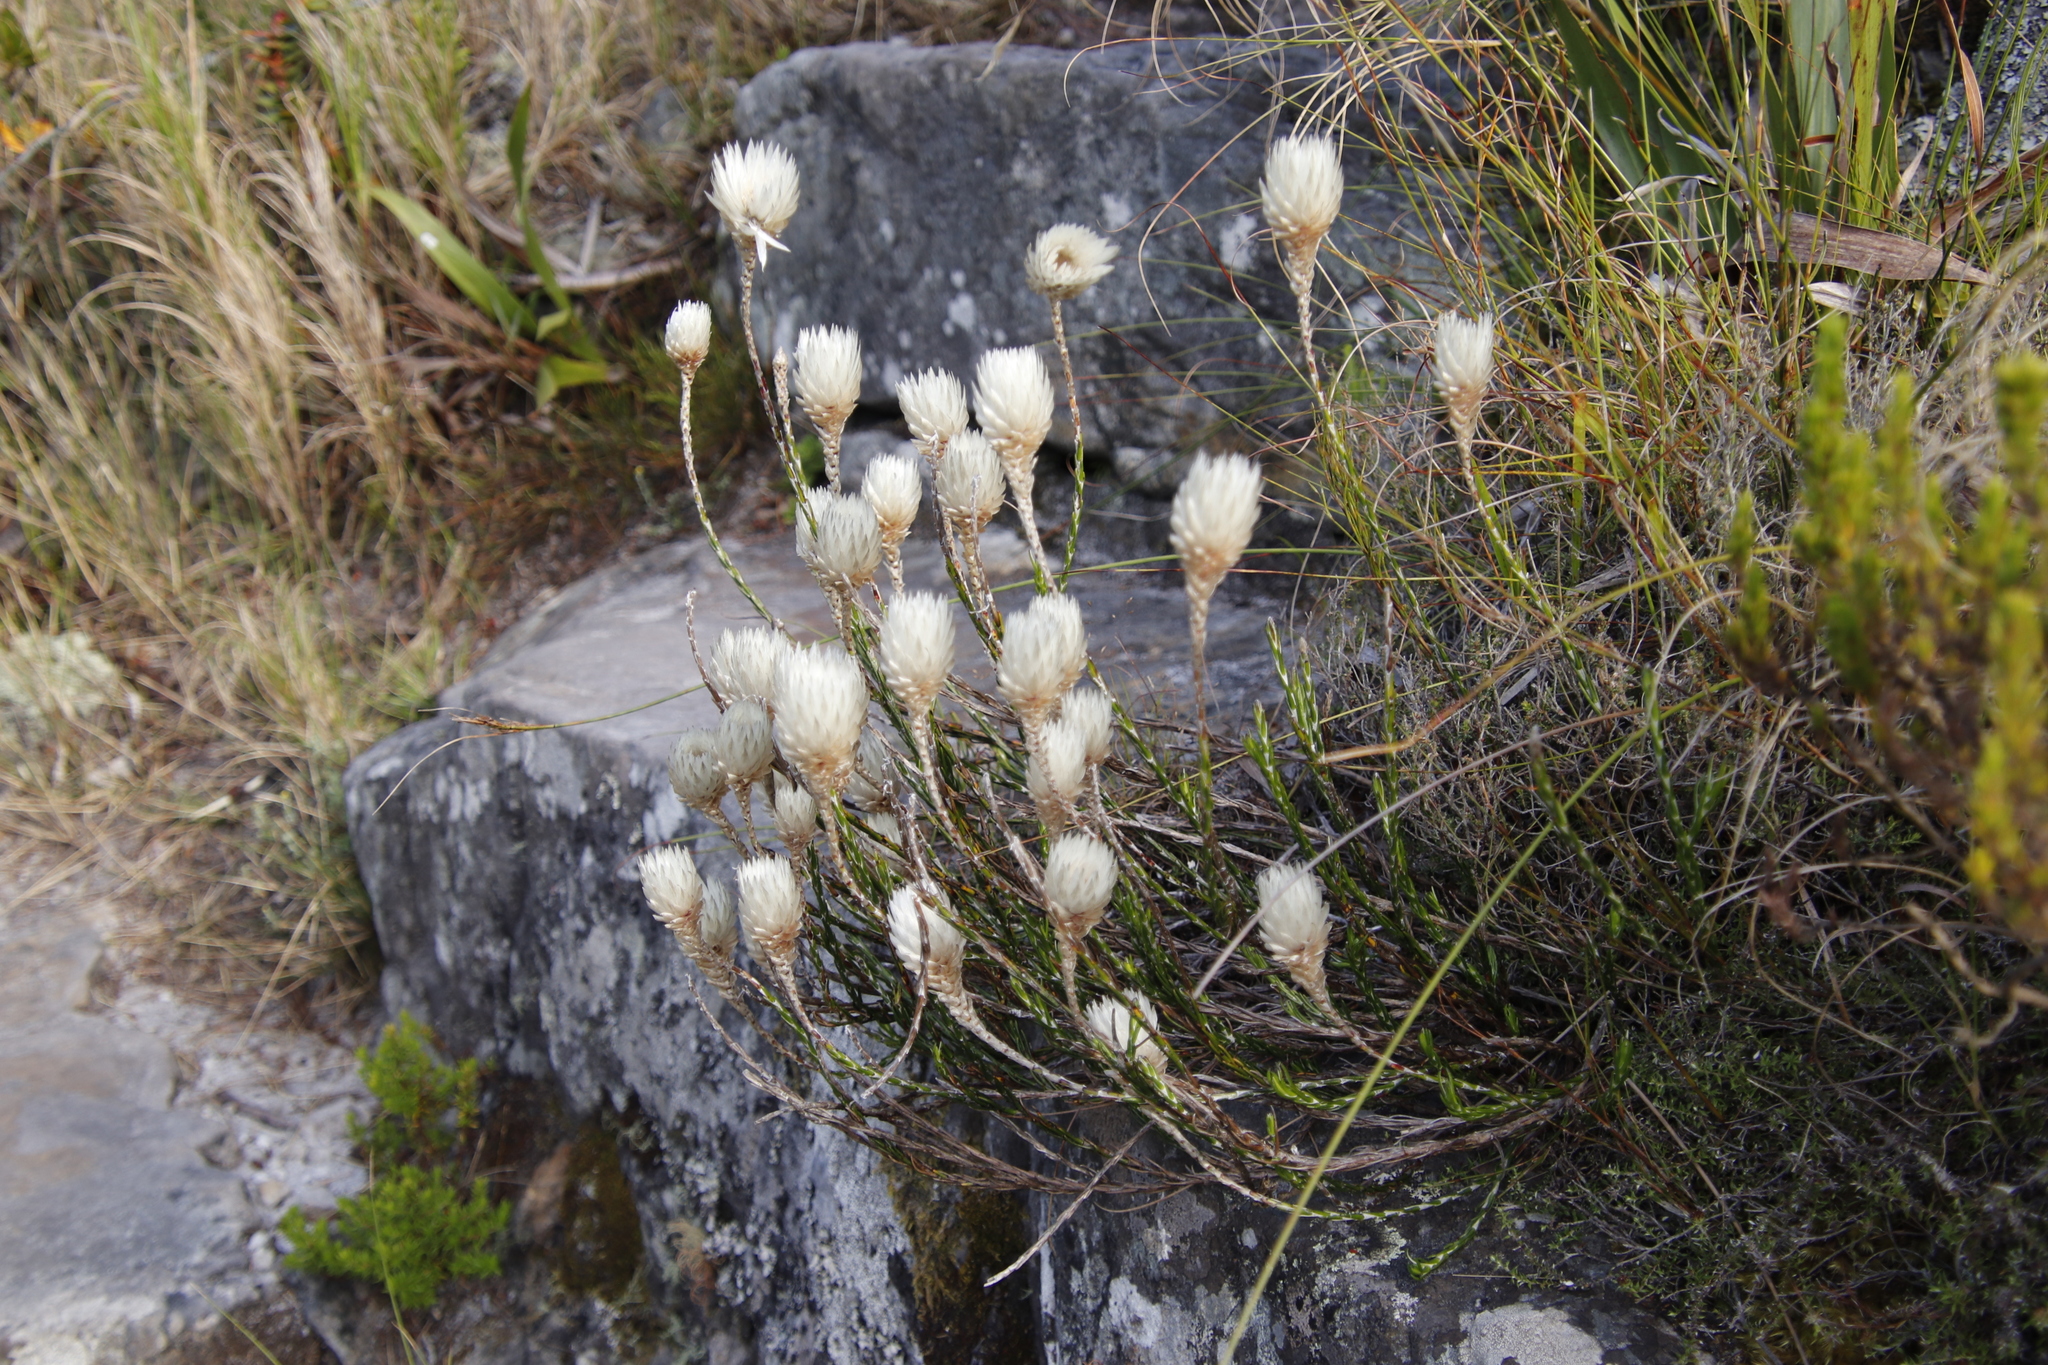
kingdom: Plantae
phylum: Tracheophyta
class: Magnoliopsida
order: Asterales
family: Asteraceae
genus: Edmondia
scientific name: Edmondia pinifolia
